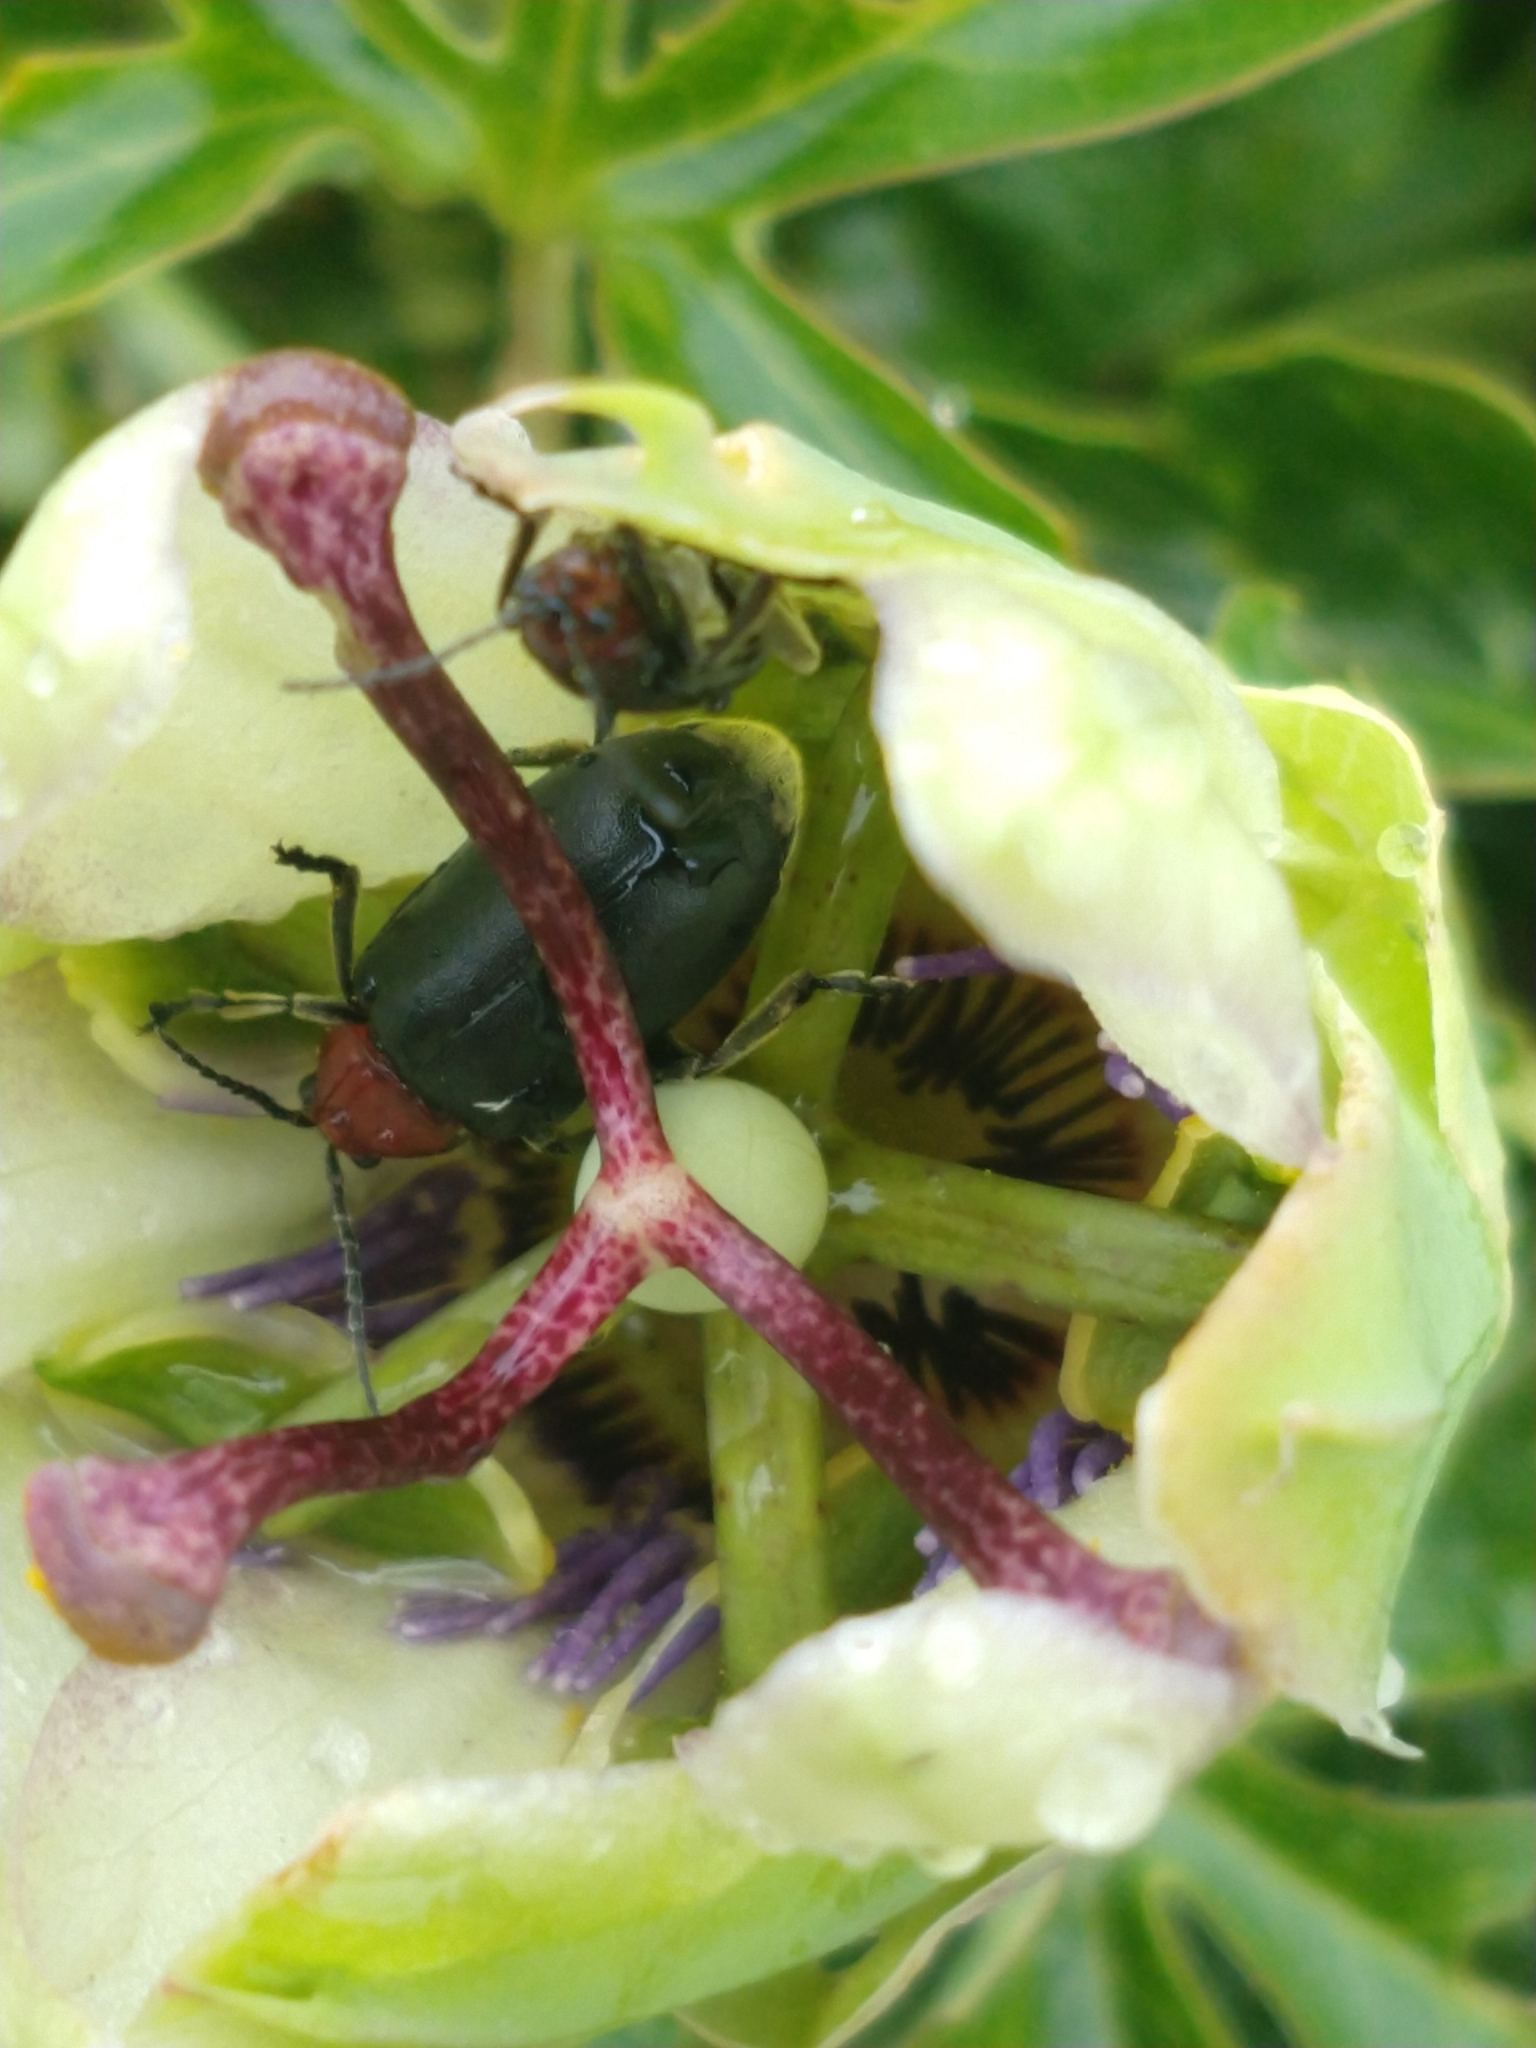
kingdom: Animalia
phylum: Arthropoda
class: Insecta
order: Coleoptera
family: Chrysomelidae
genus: Cacoscelis
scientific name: Cacoscelis
